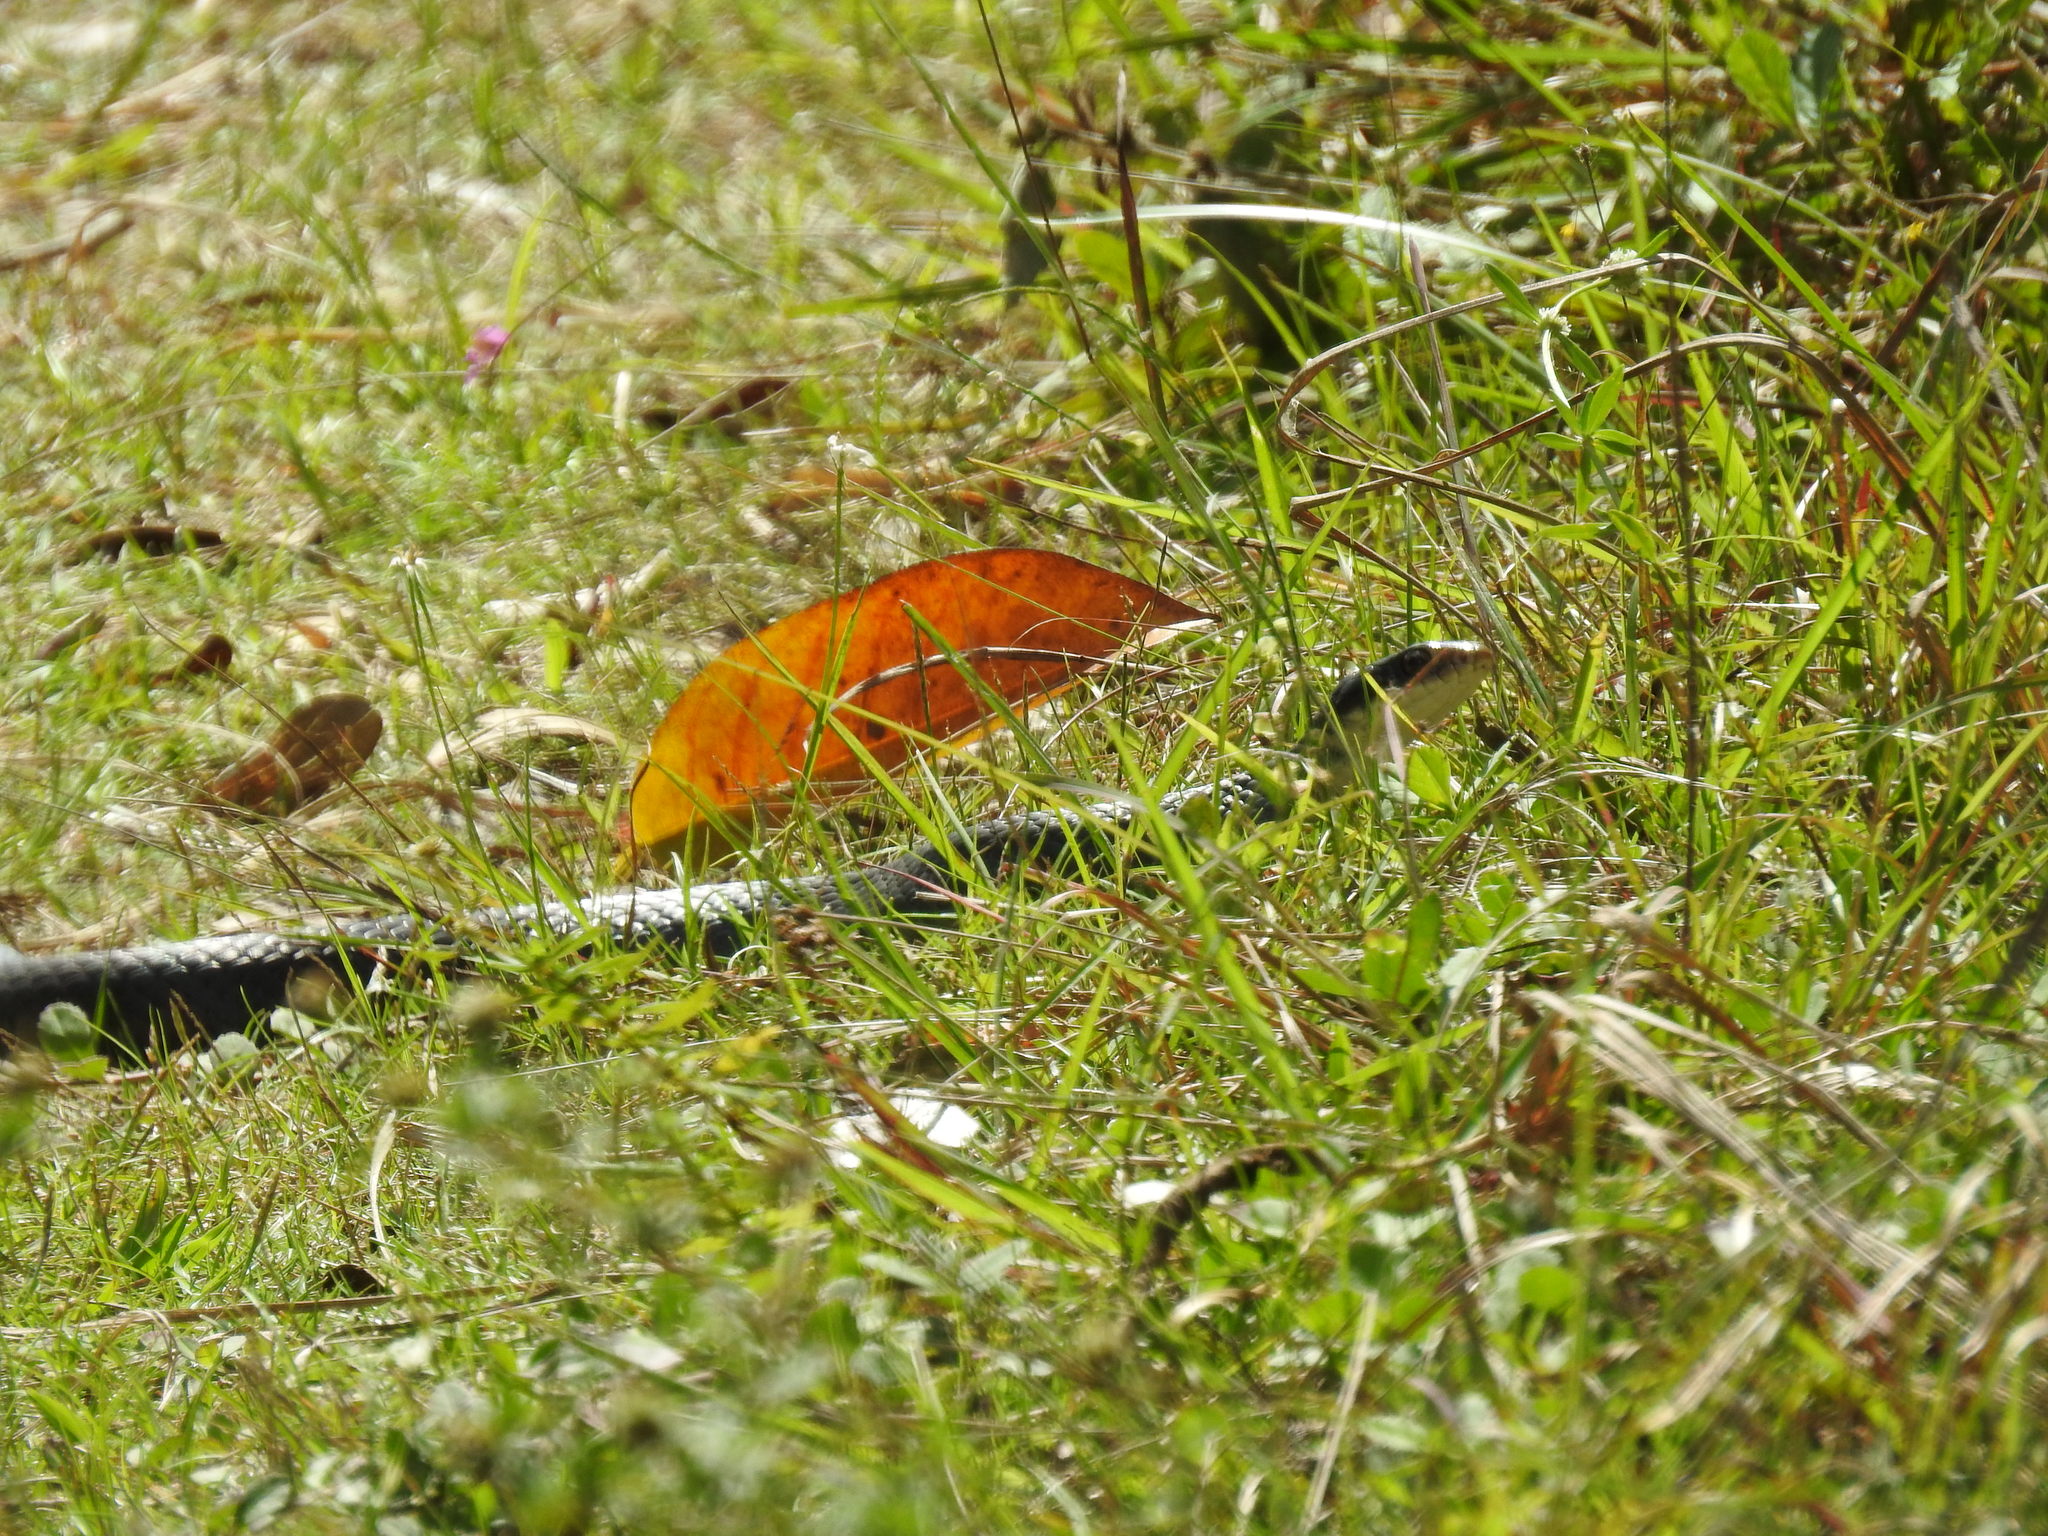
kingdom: Animalia
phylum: Chordata
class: Squamata
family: Colubridae
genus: Coluber
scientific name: Coluber constrictor
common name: Eastern racer
